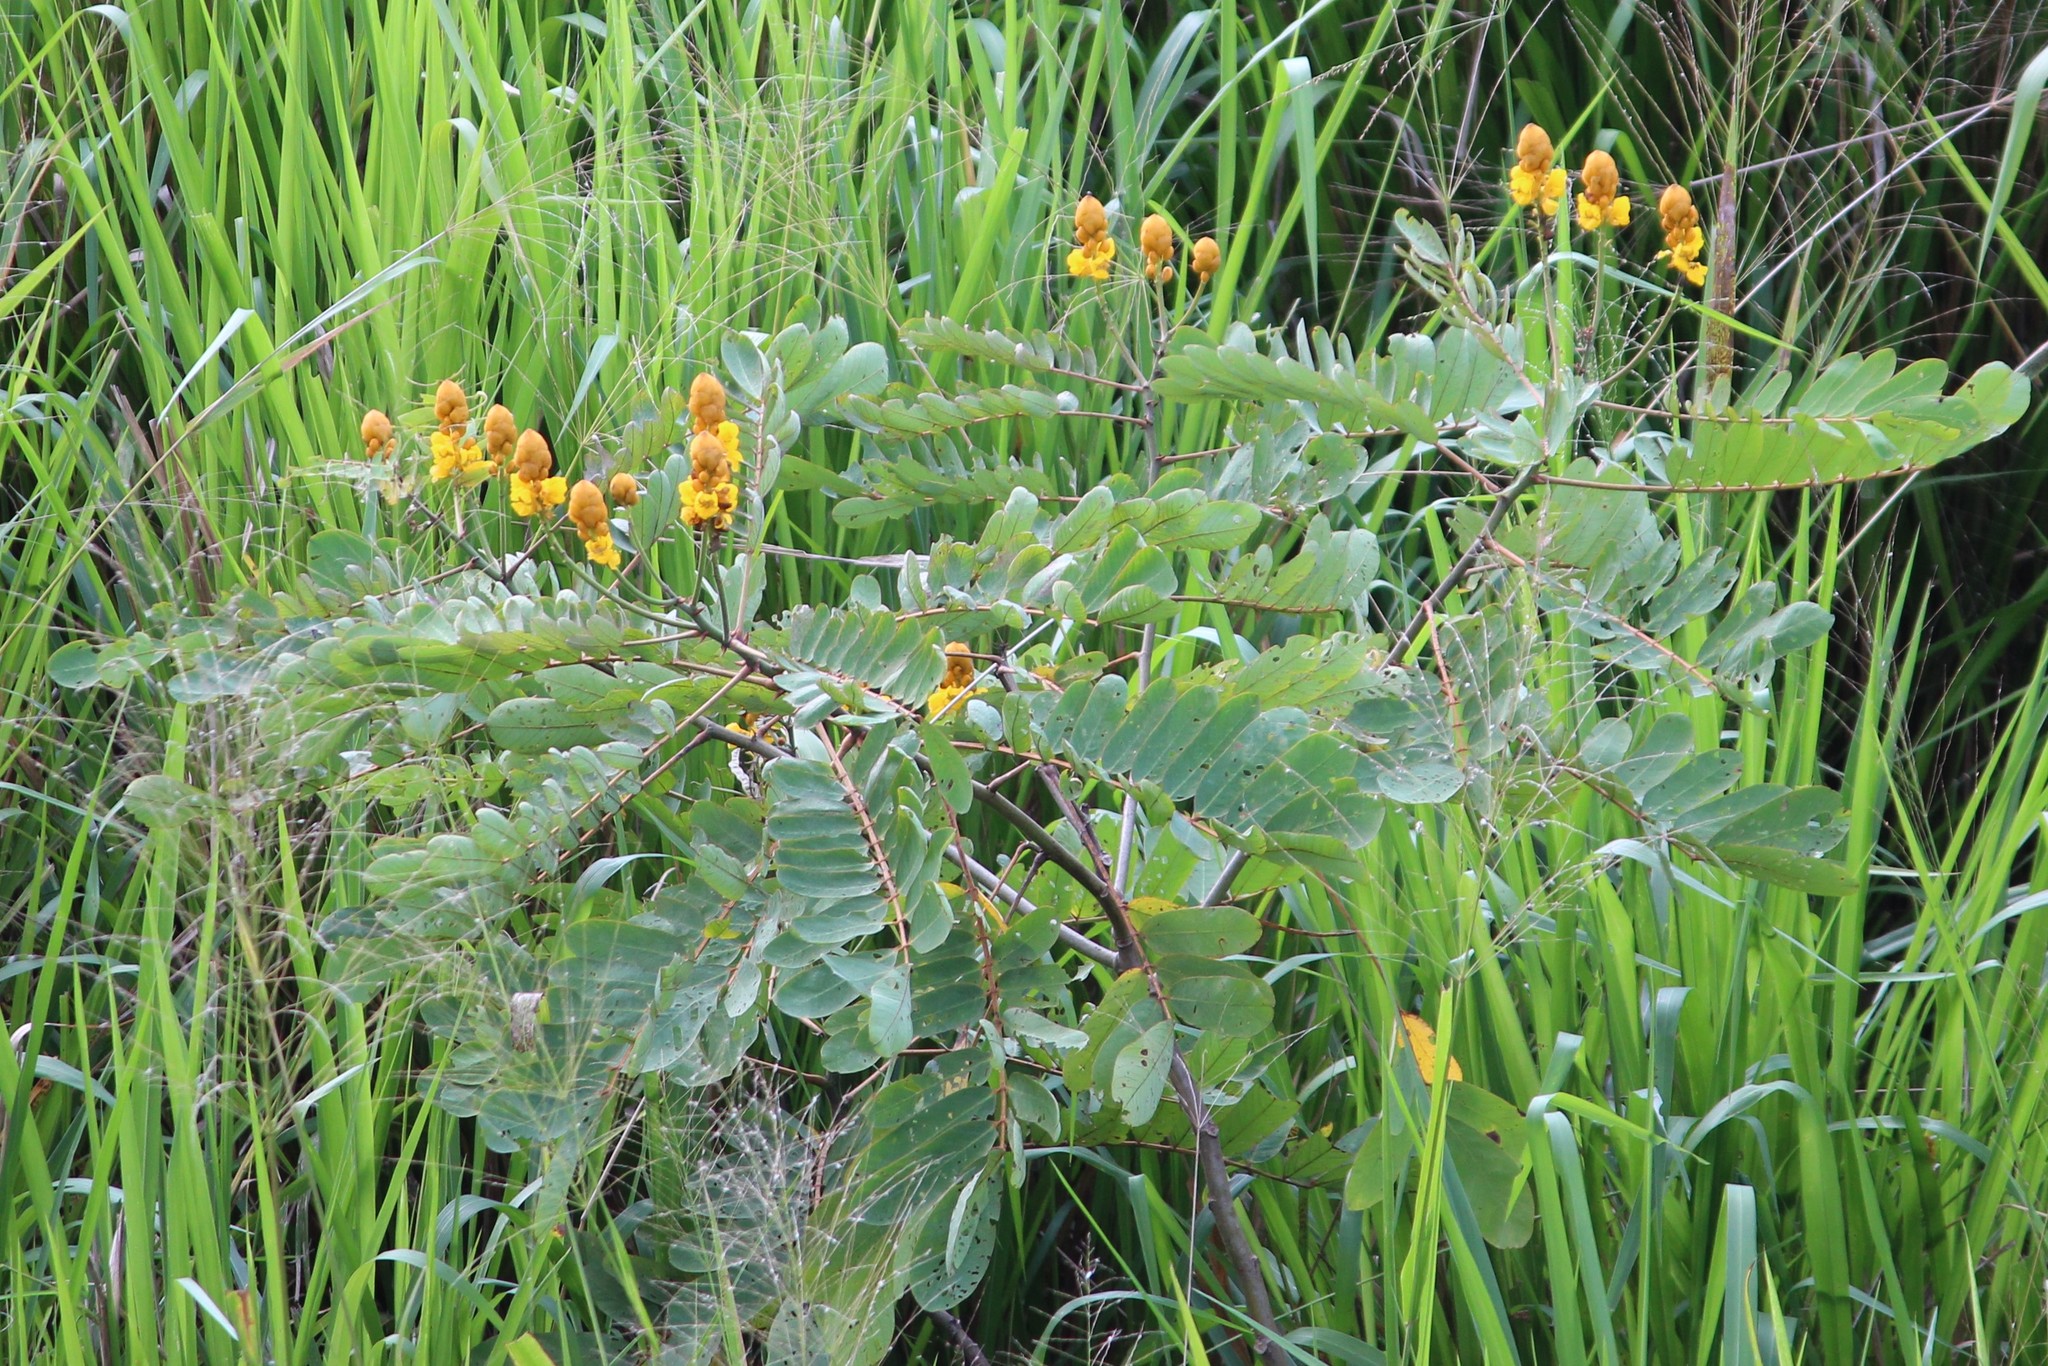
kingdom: Plantae
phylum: Tracheophyta
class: Magnoliopsida
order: Fabales
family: Fabaceae
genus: Senna
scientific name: Senna reticulata
